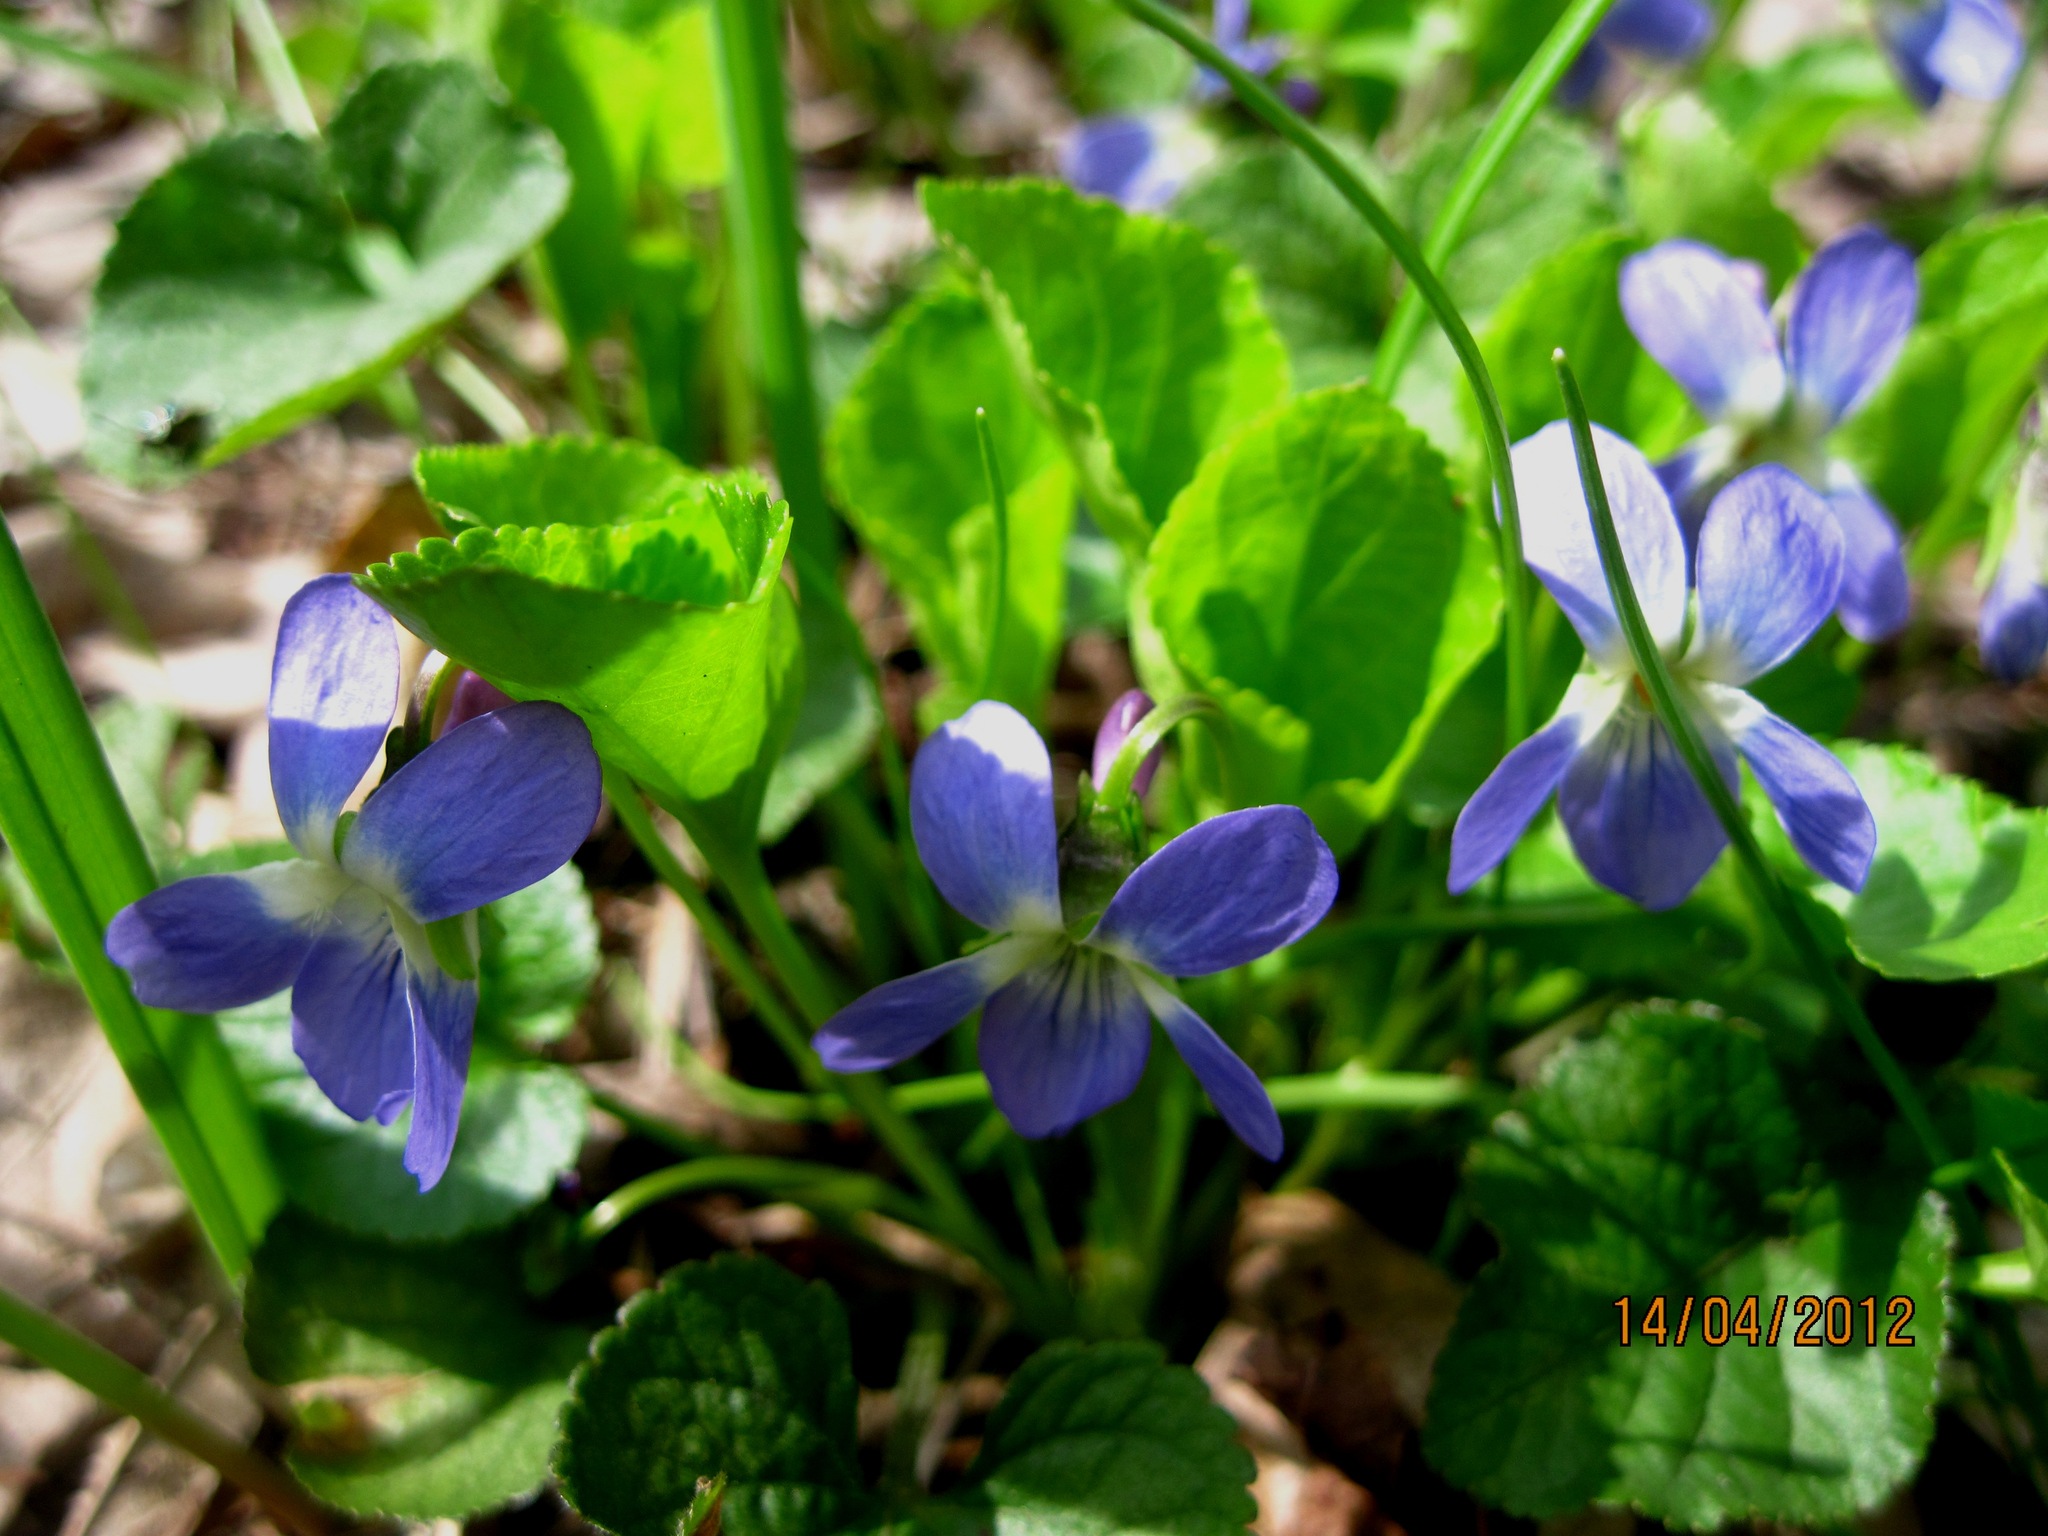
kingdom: Plantae
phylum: Tracheophyta
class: Magnoliopsida
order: Malpighiales
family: Violaceae
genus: Viola
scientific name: Viola suavis
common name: Russian violet
